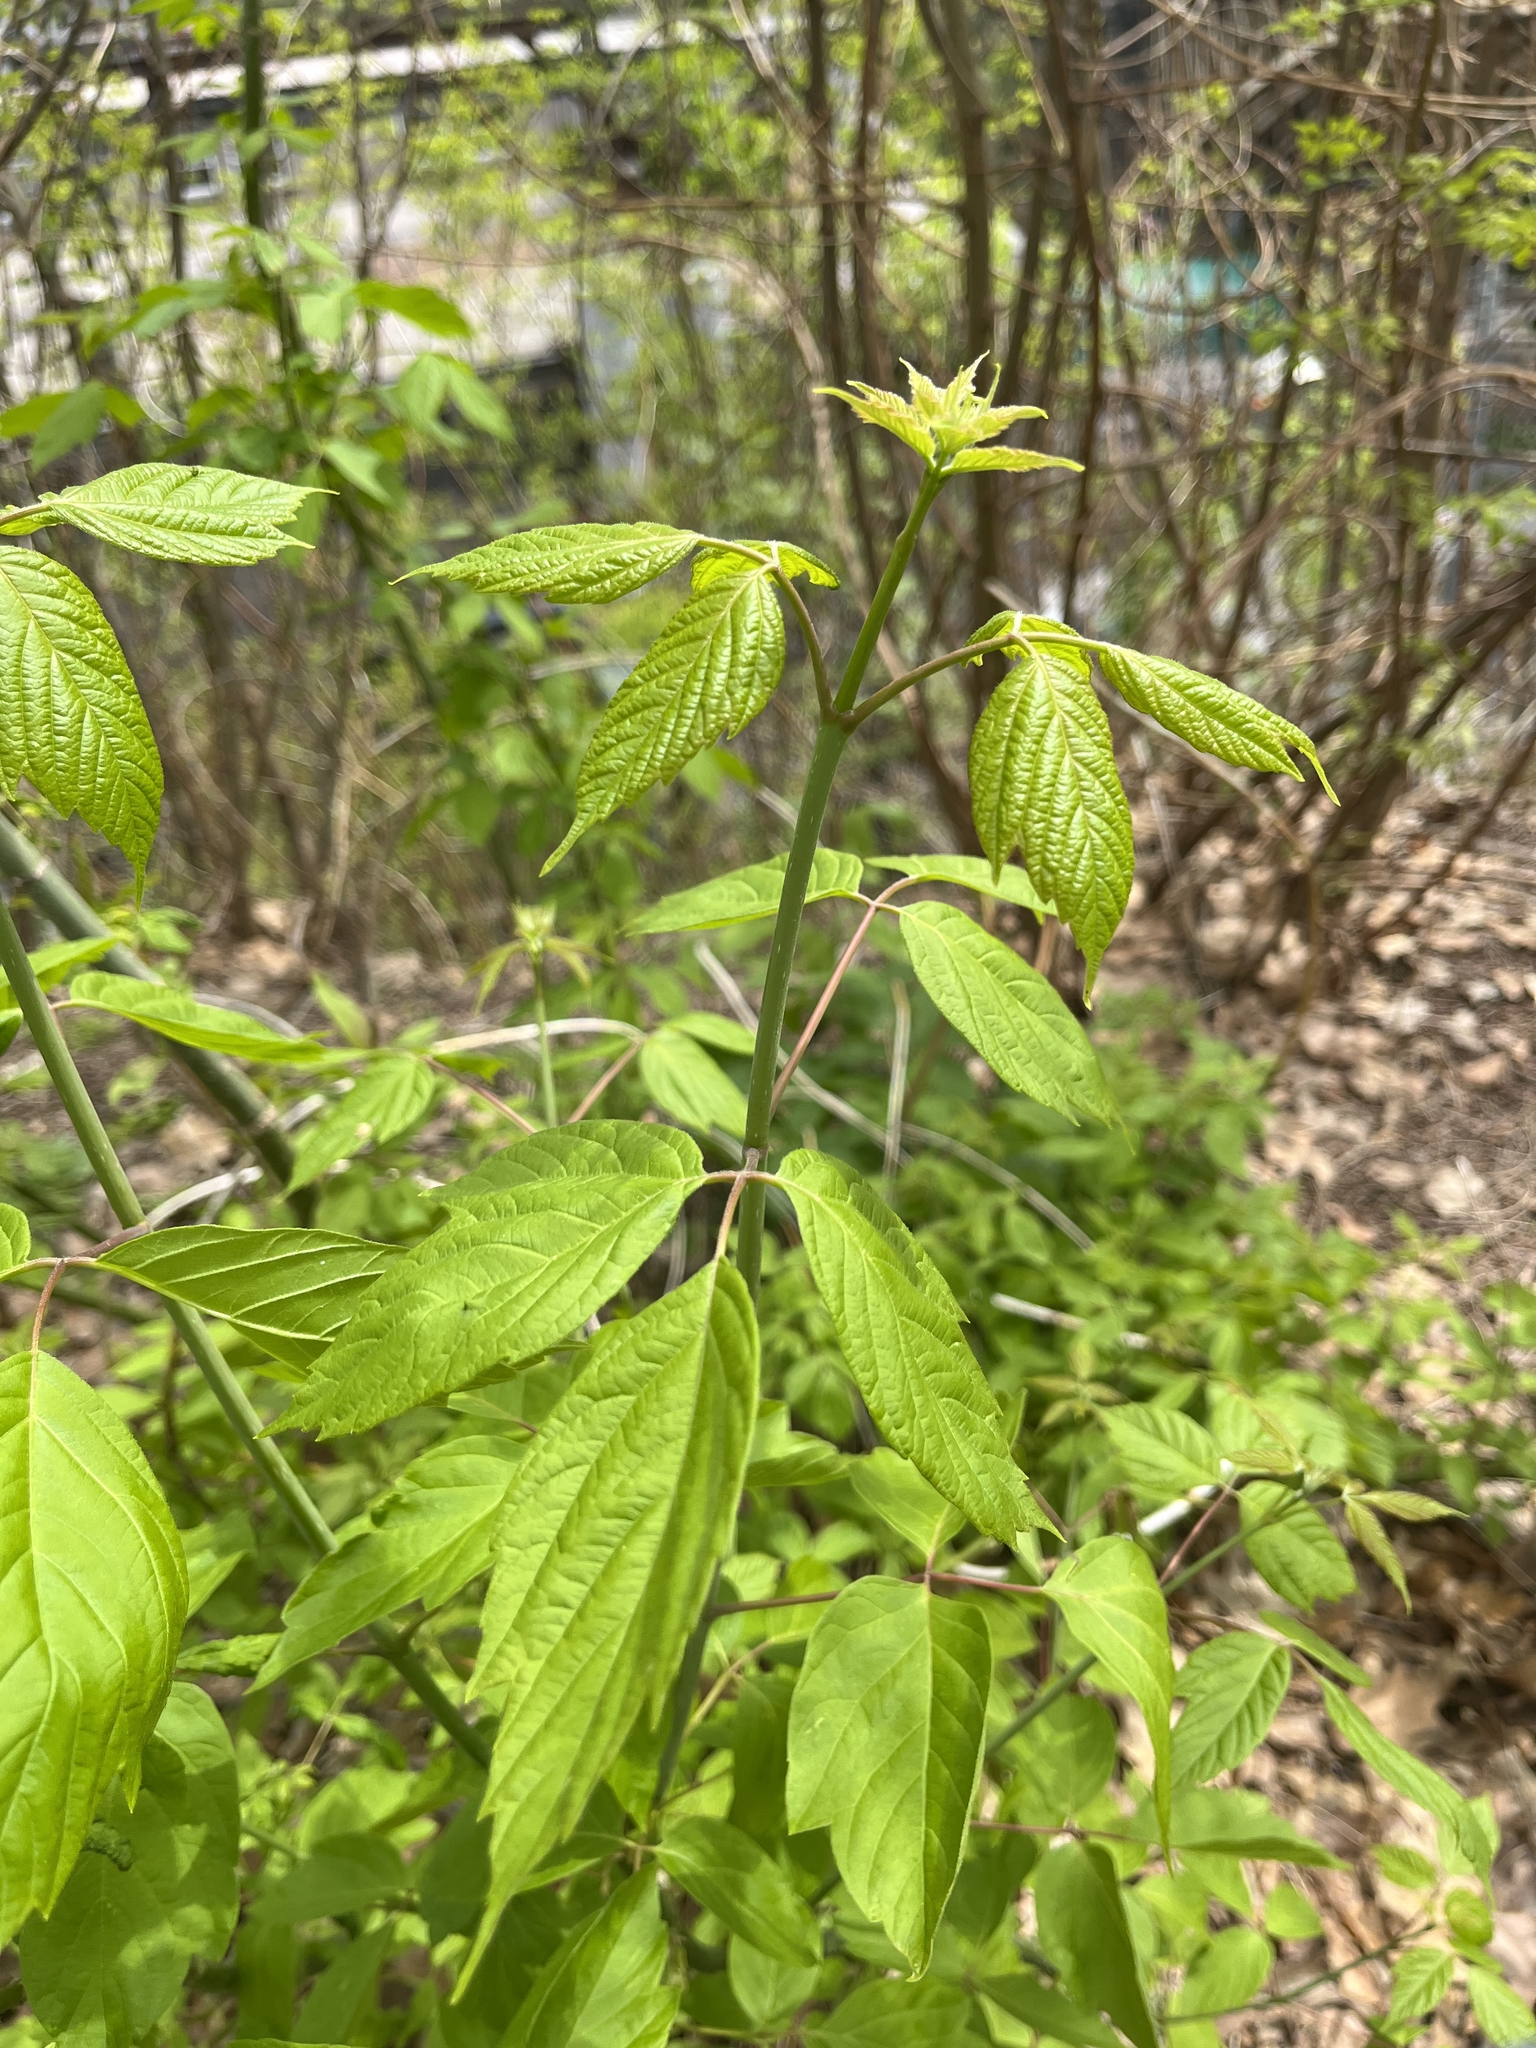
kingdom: Plantae
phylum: Tracheophyta
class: Magnoliopsida
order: Sapindales
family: Sapindaceae
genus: Acer
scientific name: Acer negundo
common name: Ashleaf maple
